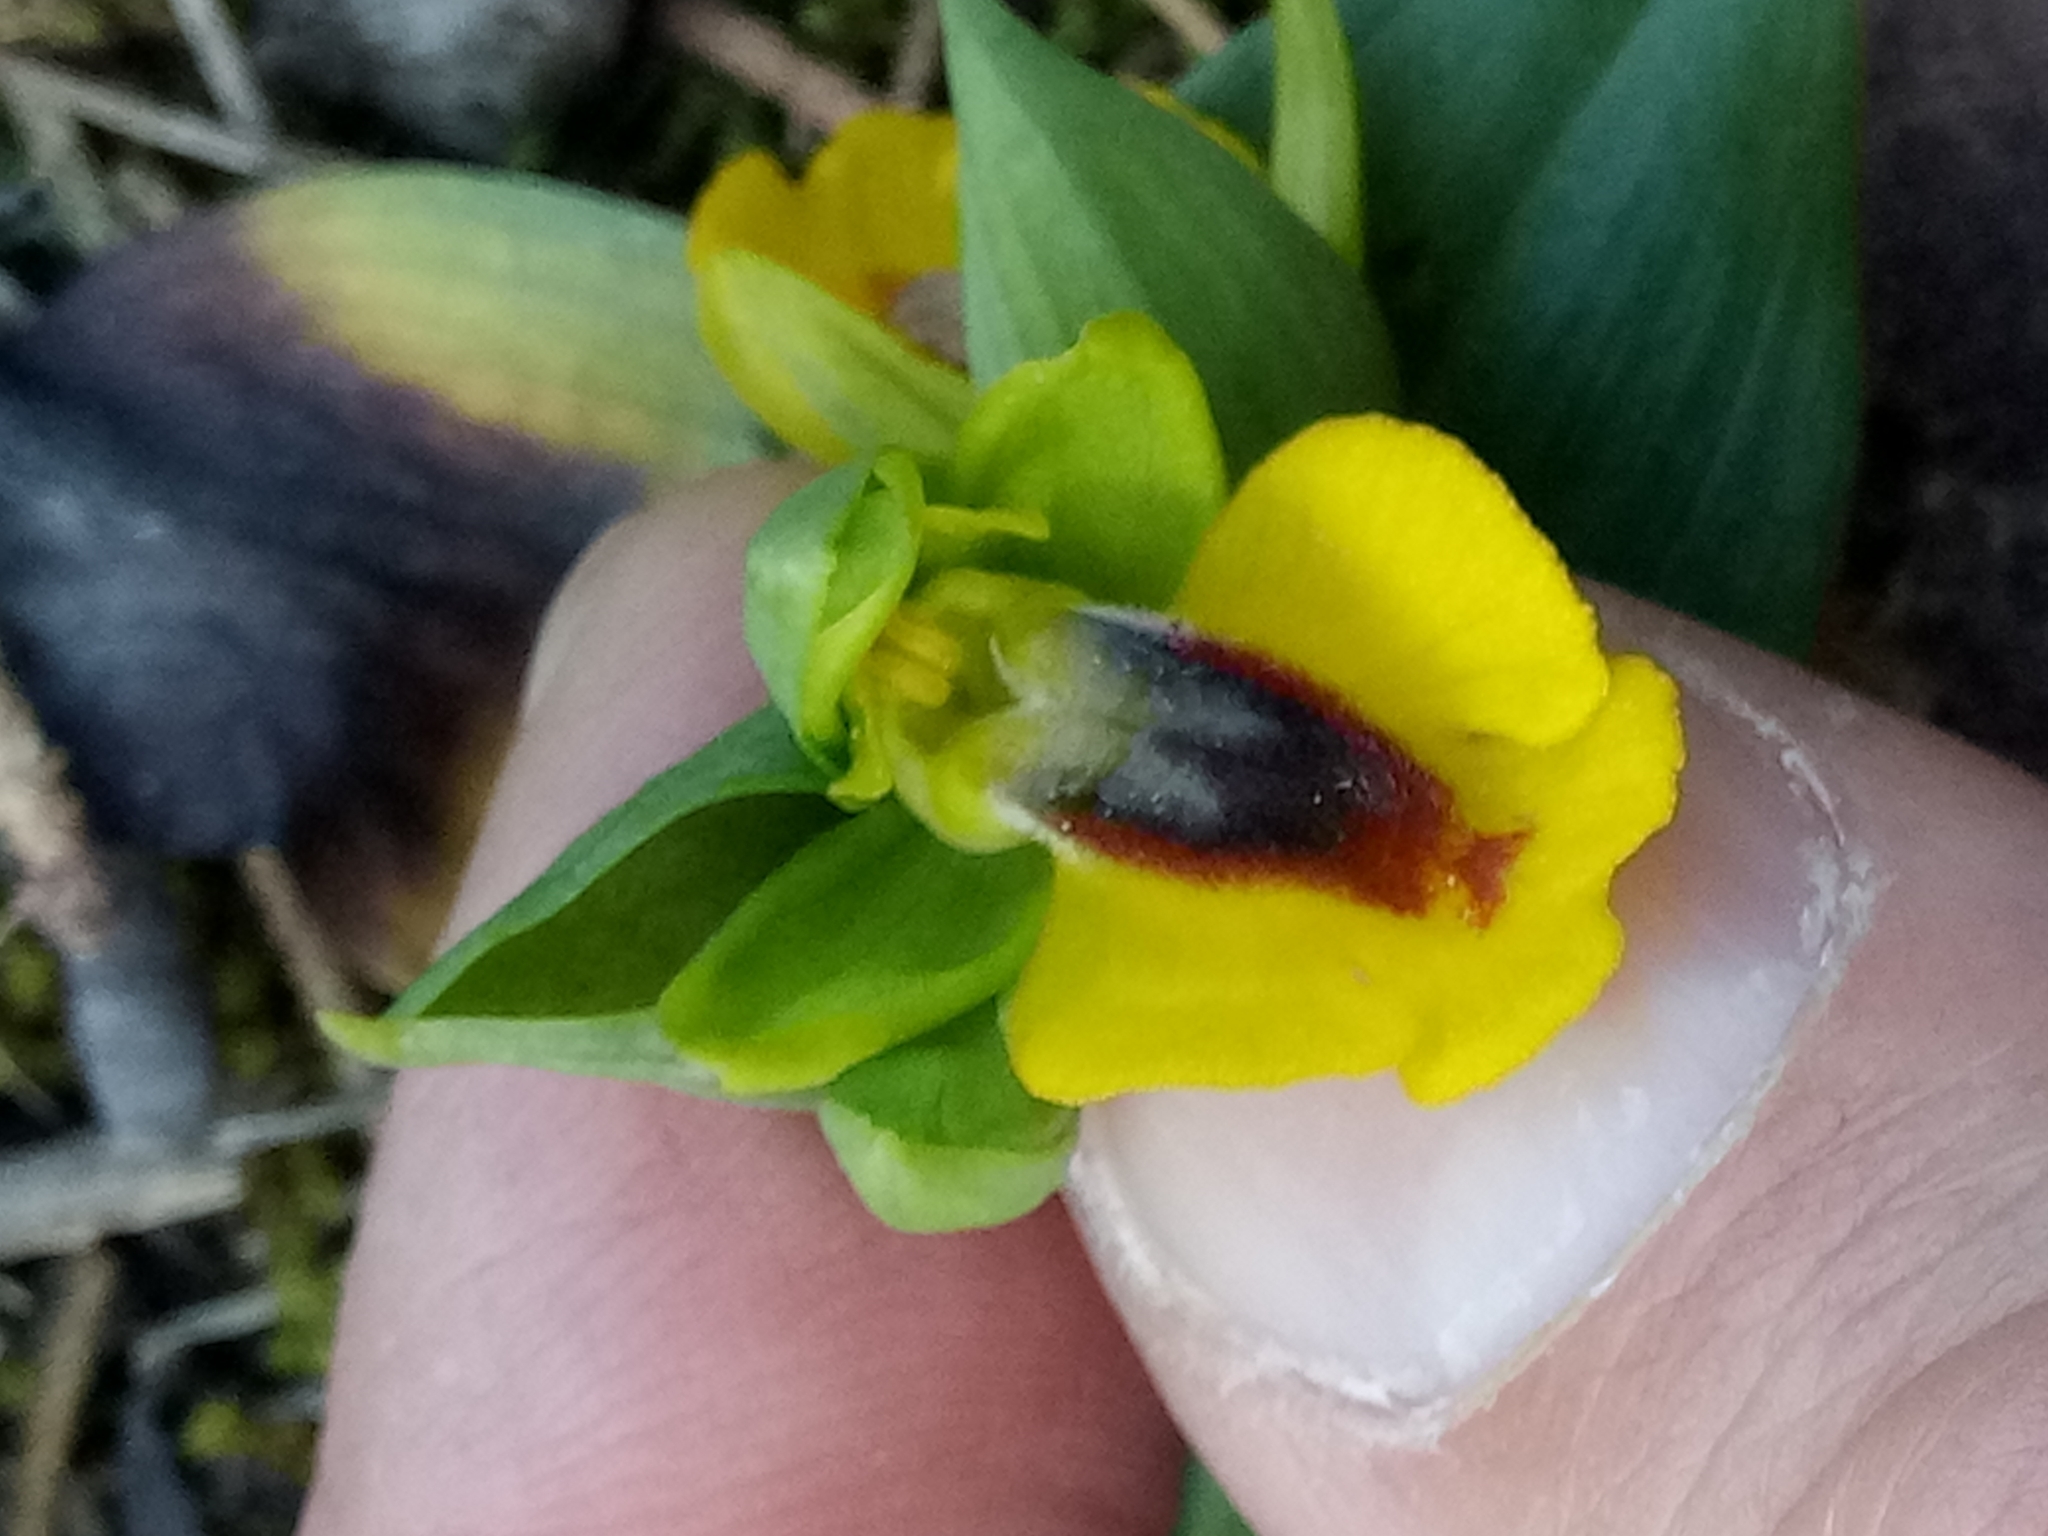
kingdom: Plantae
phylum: Tracheophyta
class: Liliopsida
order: Asparagales
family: Orchidaceae
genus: Ophrys
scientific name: Ophrys lutea
